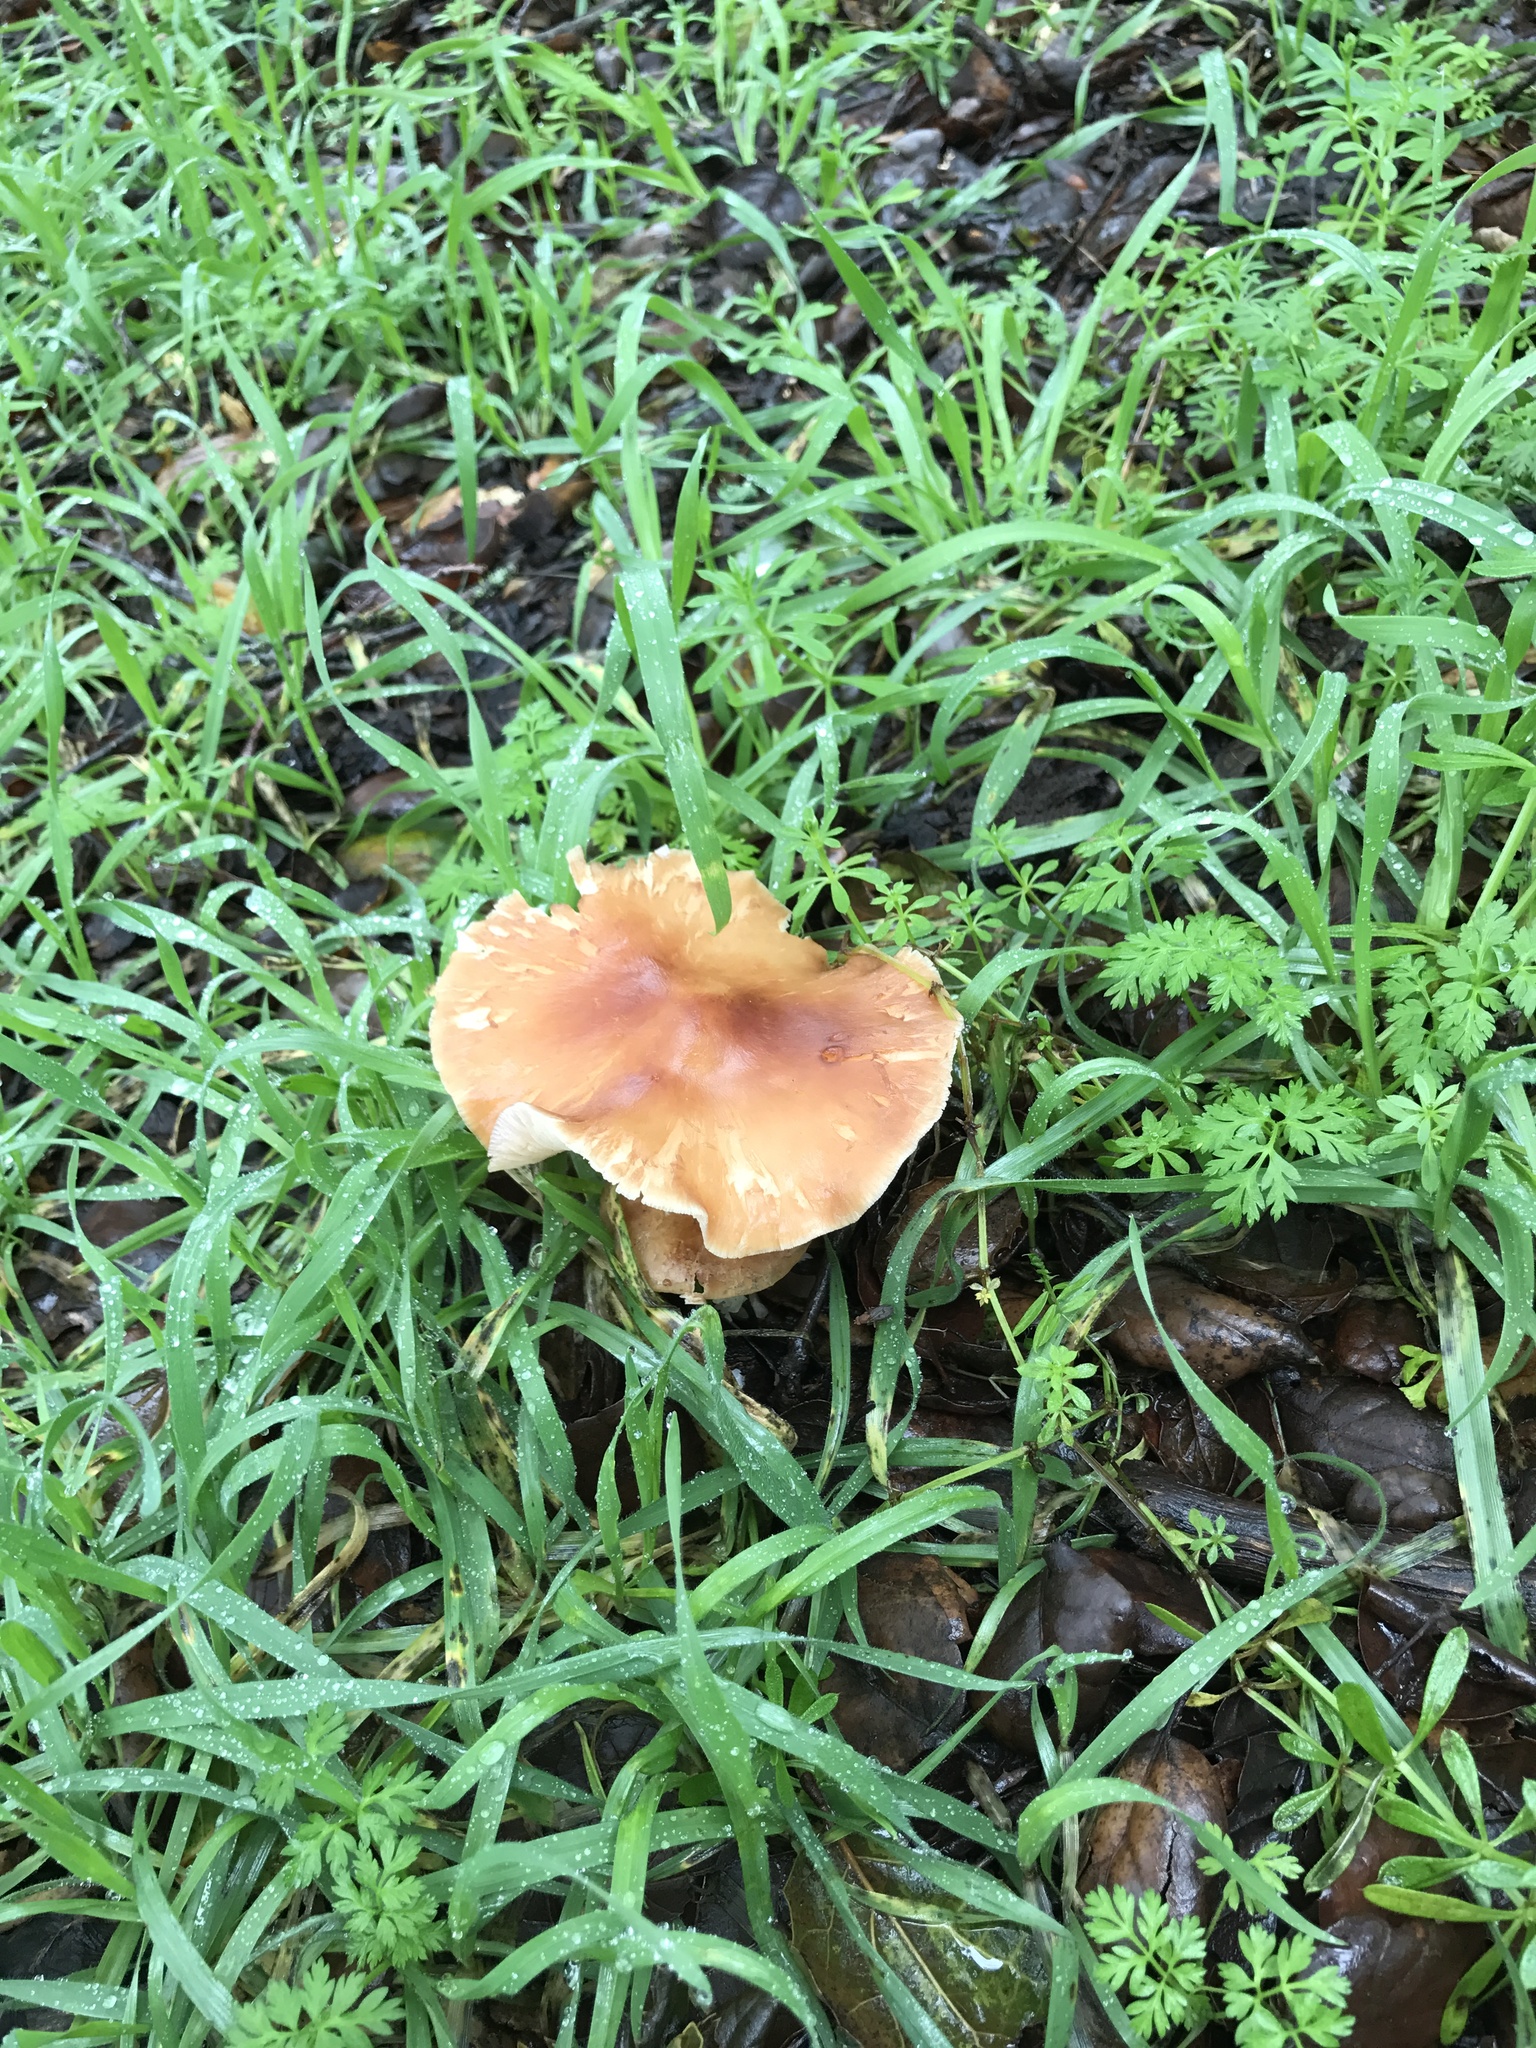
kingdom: Fungi
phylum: Basidiomycota
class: Agaricomycetes
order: Agaricales
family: Omphalotaceae
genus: Rhodocollybia
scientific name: Rhodocollybia butyracea
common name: Butter cap
